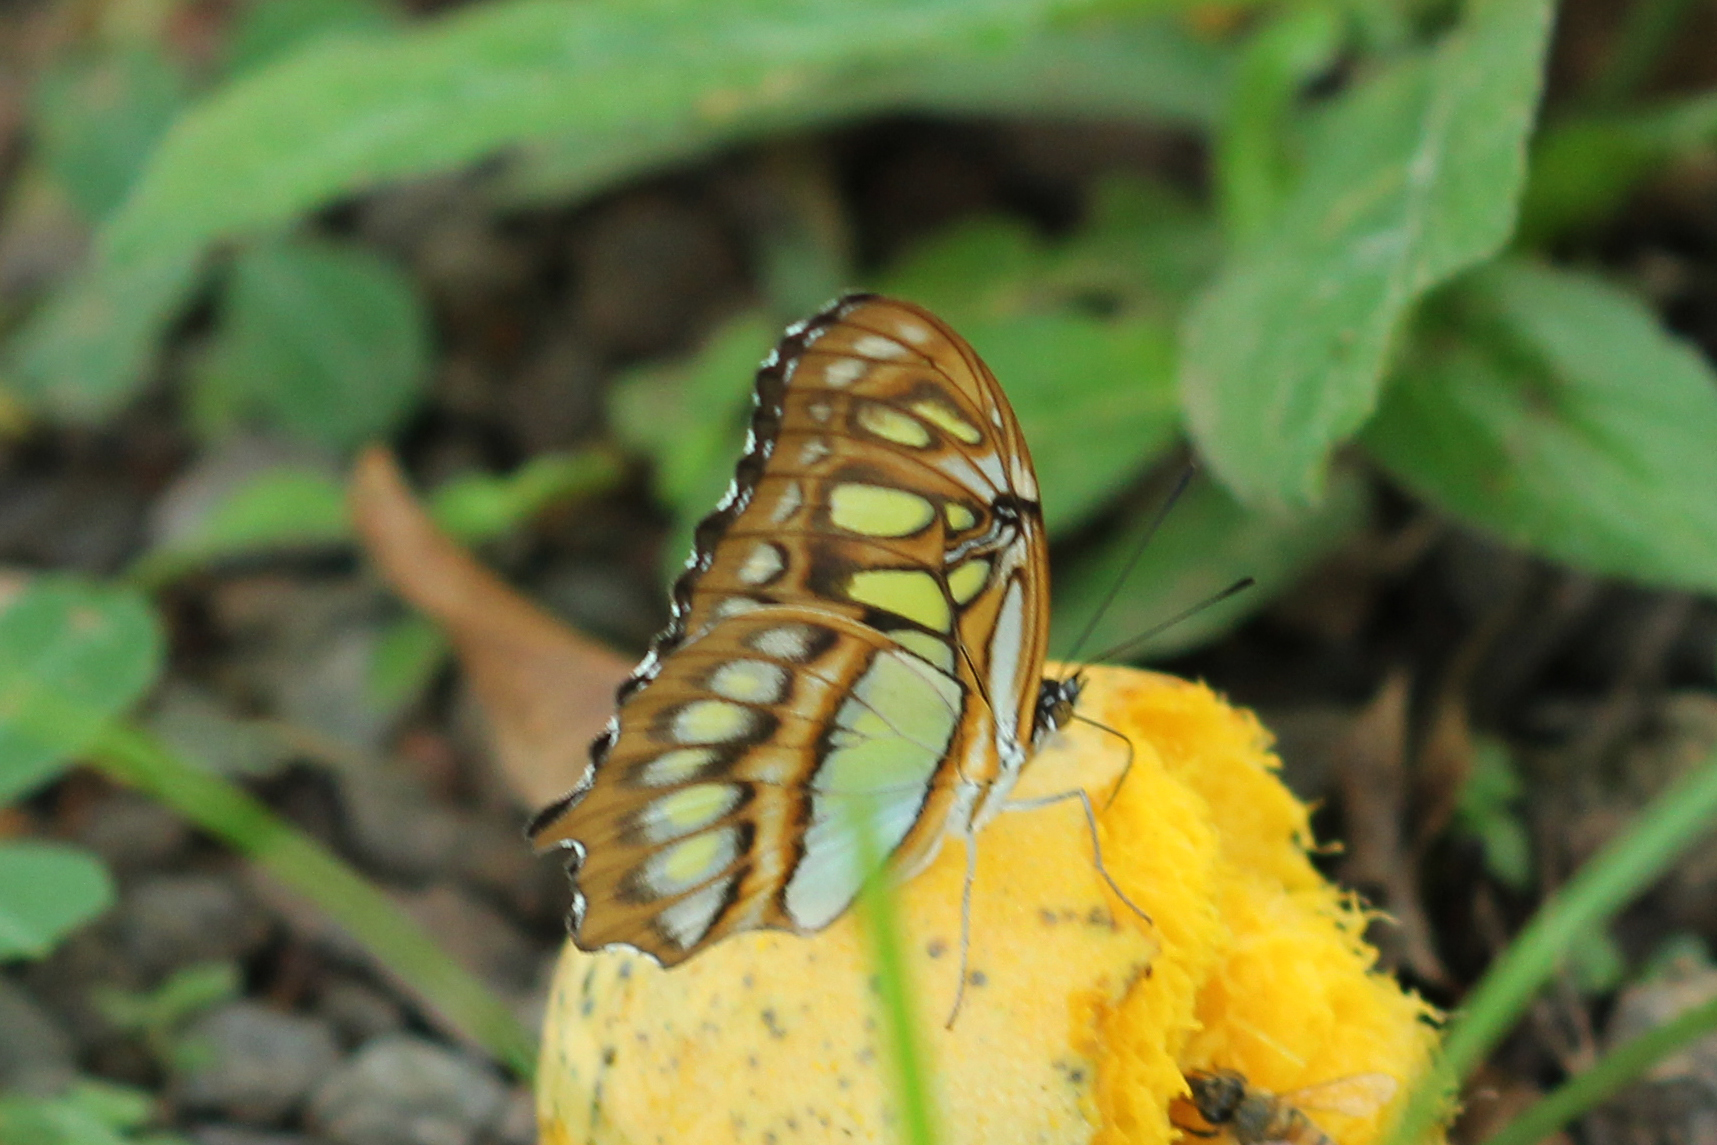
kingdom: Animalia
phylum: Arthropoda
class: Insecta
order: Lepidoptera
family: Nymphalidae
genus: Siproeta
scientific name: Siproeta stelenes
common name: Malachite
